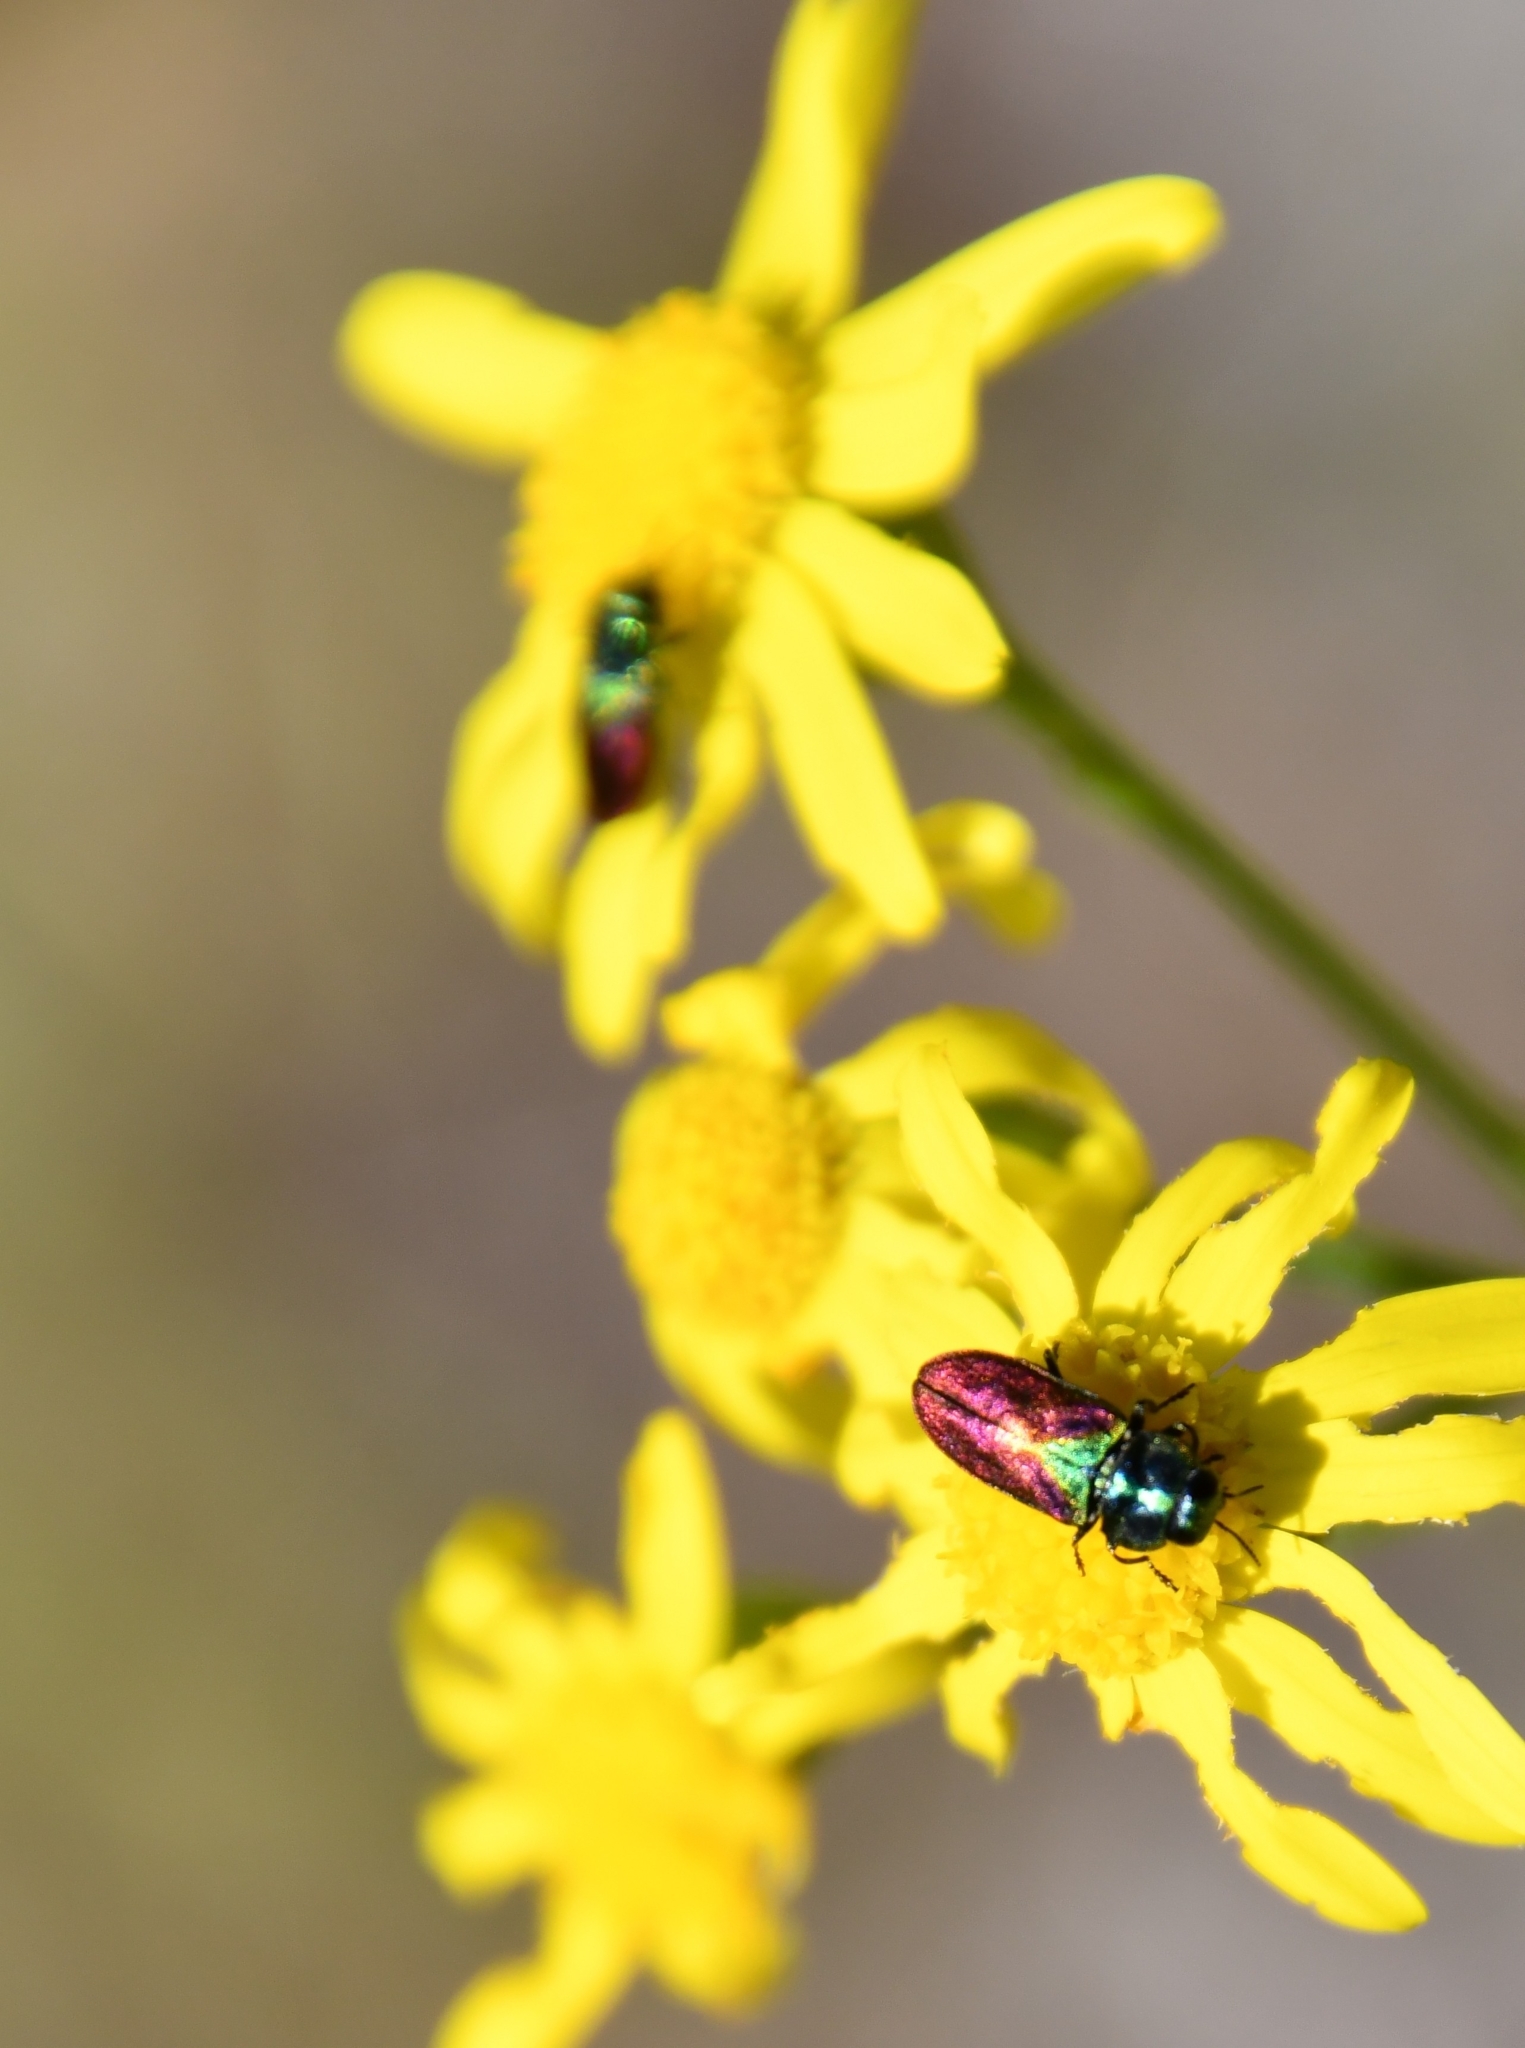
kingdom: Animalia
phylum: Arthropoda
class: Insecta
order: Coleoptera
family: Buprestidae
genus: Anthaxia
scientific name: Anthaxia bicolor
